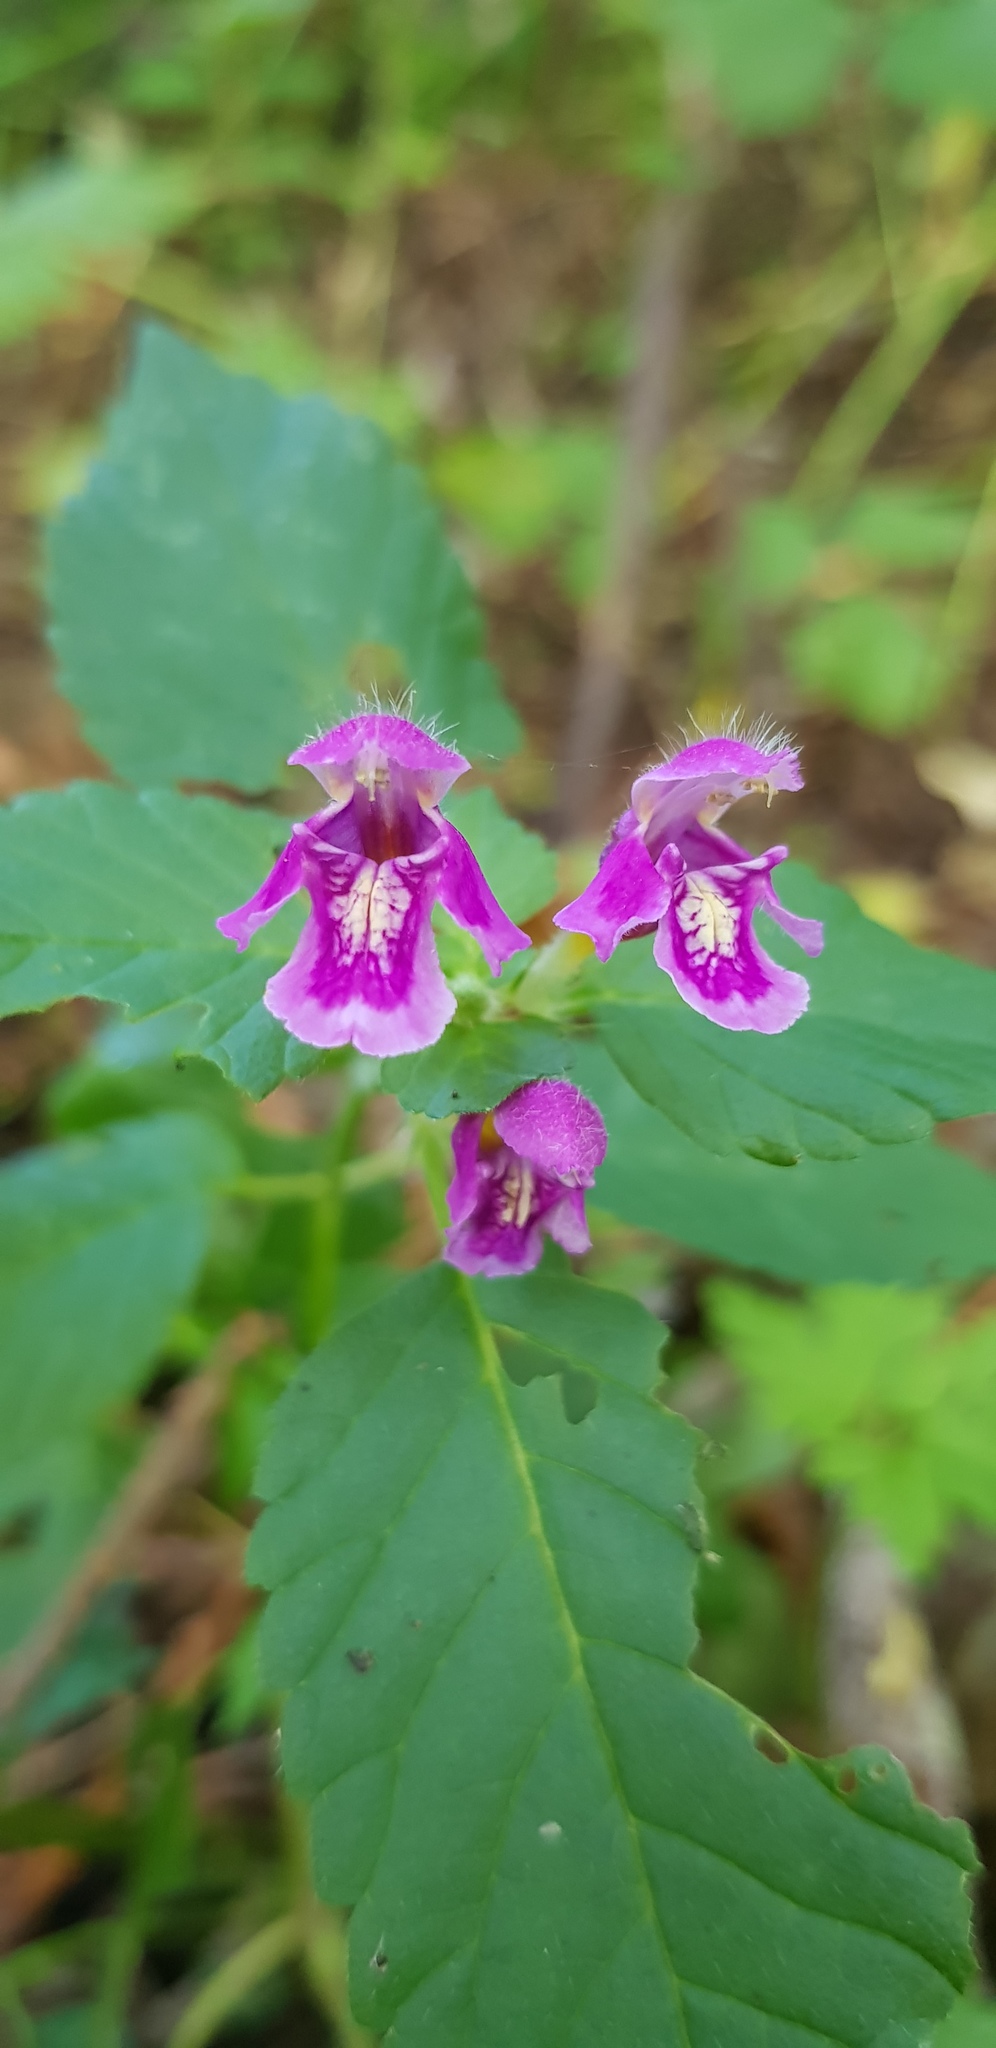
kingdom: Plantae
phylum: Tracheophyta
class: Magnoliopsida
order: Lamiales
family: Lamiaceae
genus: Galeopsis
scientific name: Galeopsis pubescens
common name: Downy hemp-nettle
